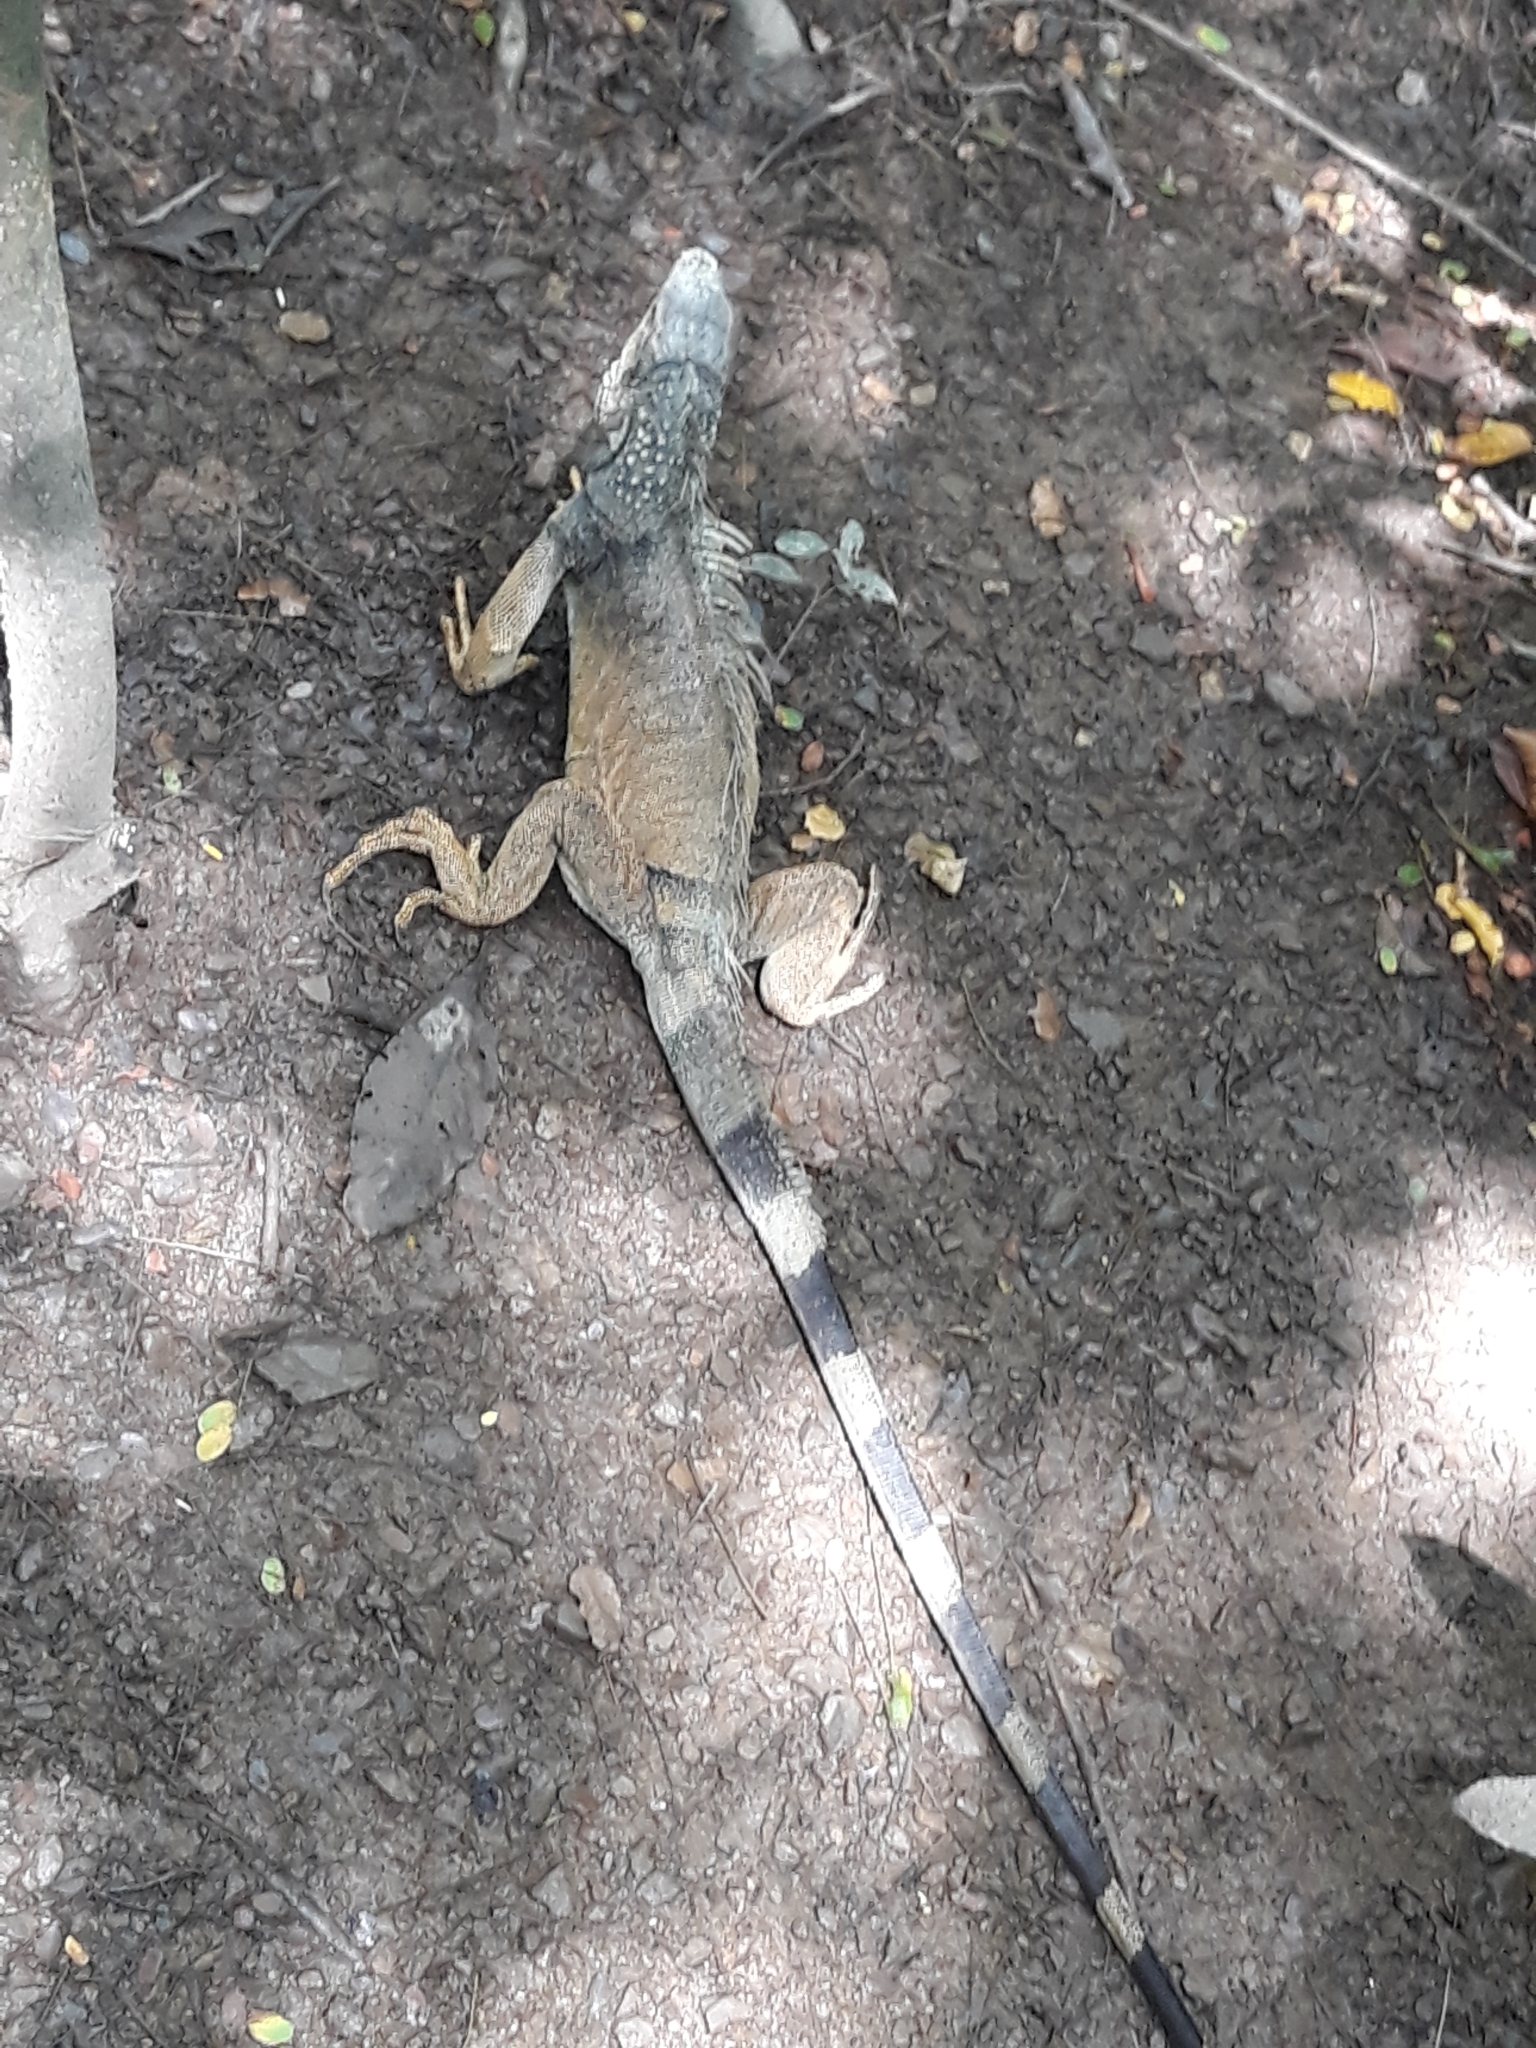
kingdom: Animalia
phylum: Chordata
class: Squamata
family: Iguanidae
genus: Iguana
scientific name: Iguana iguana
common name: Green iguana
